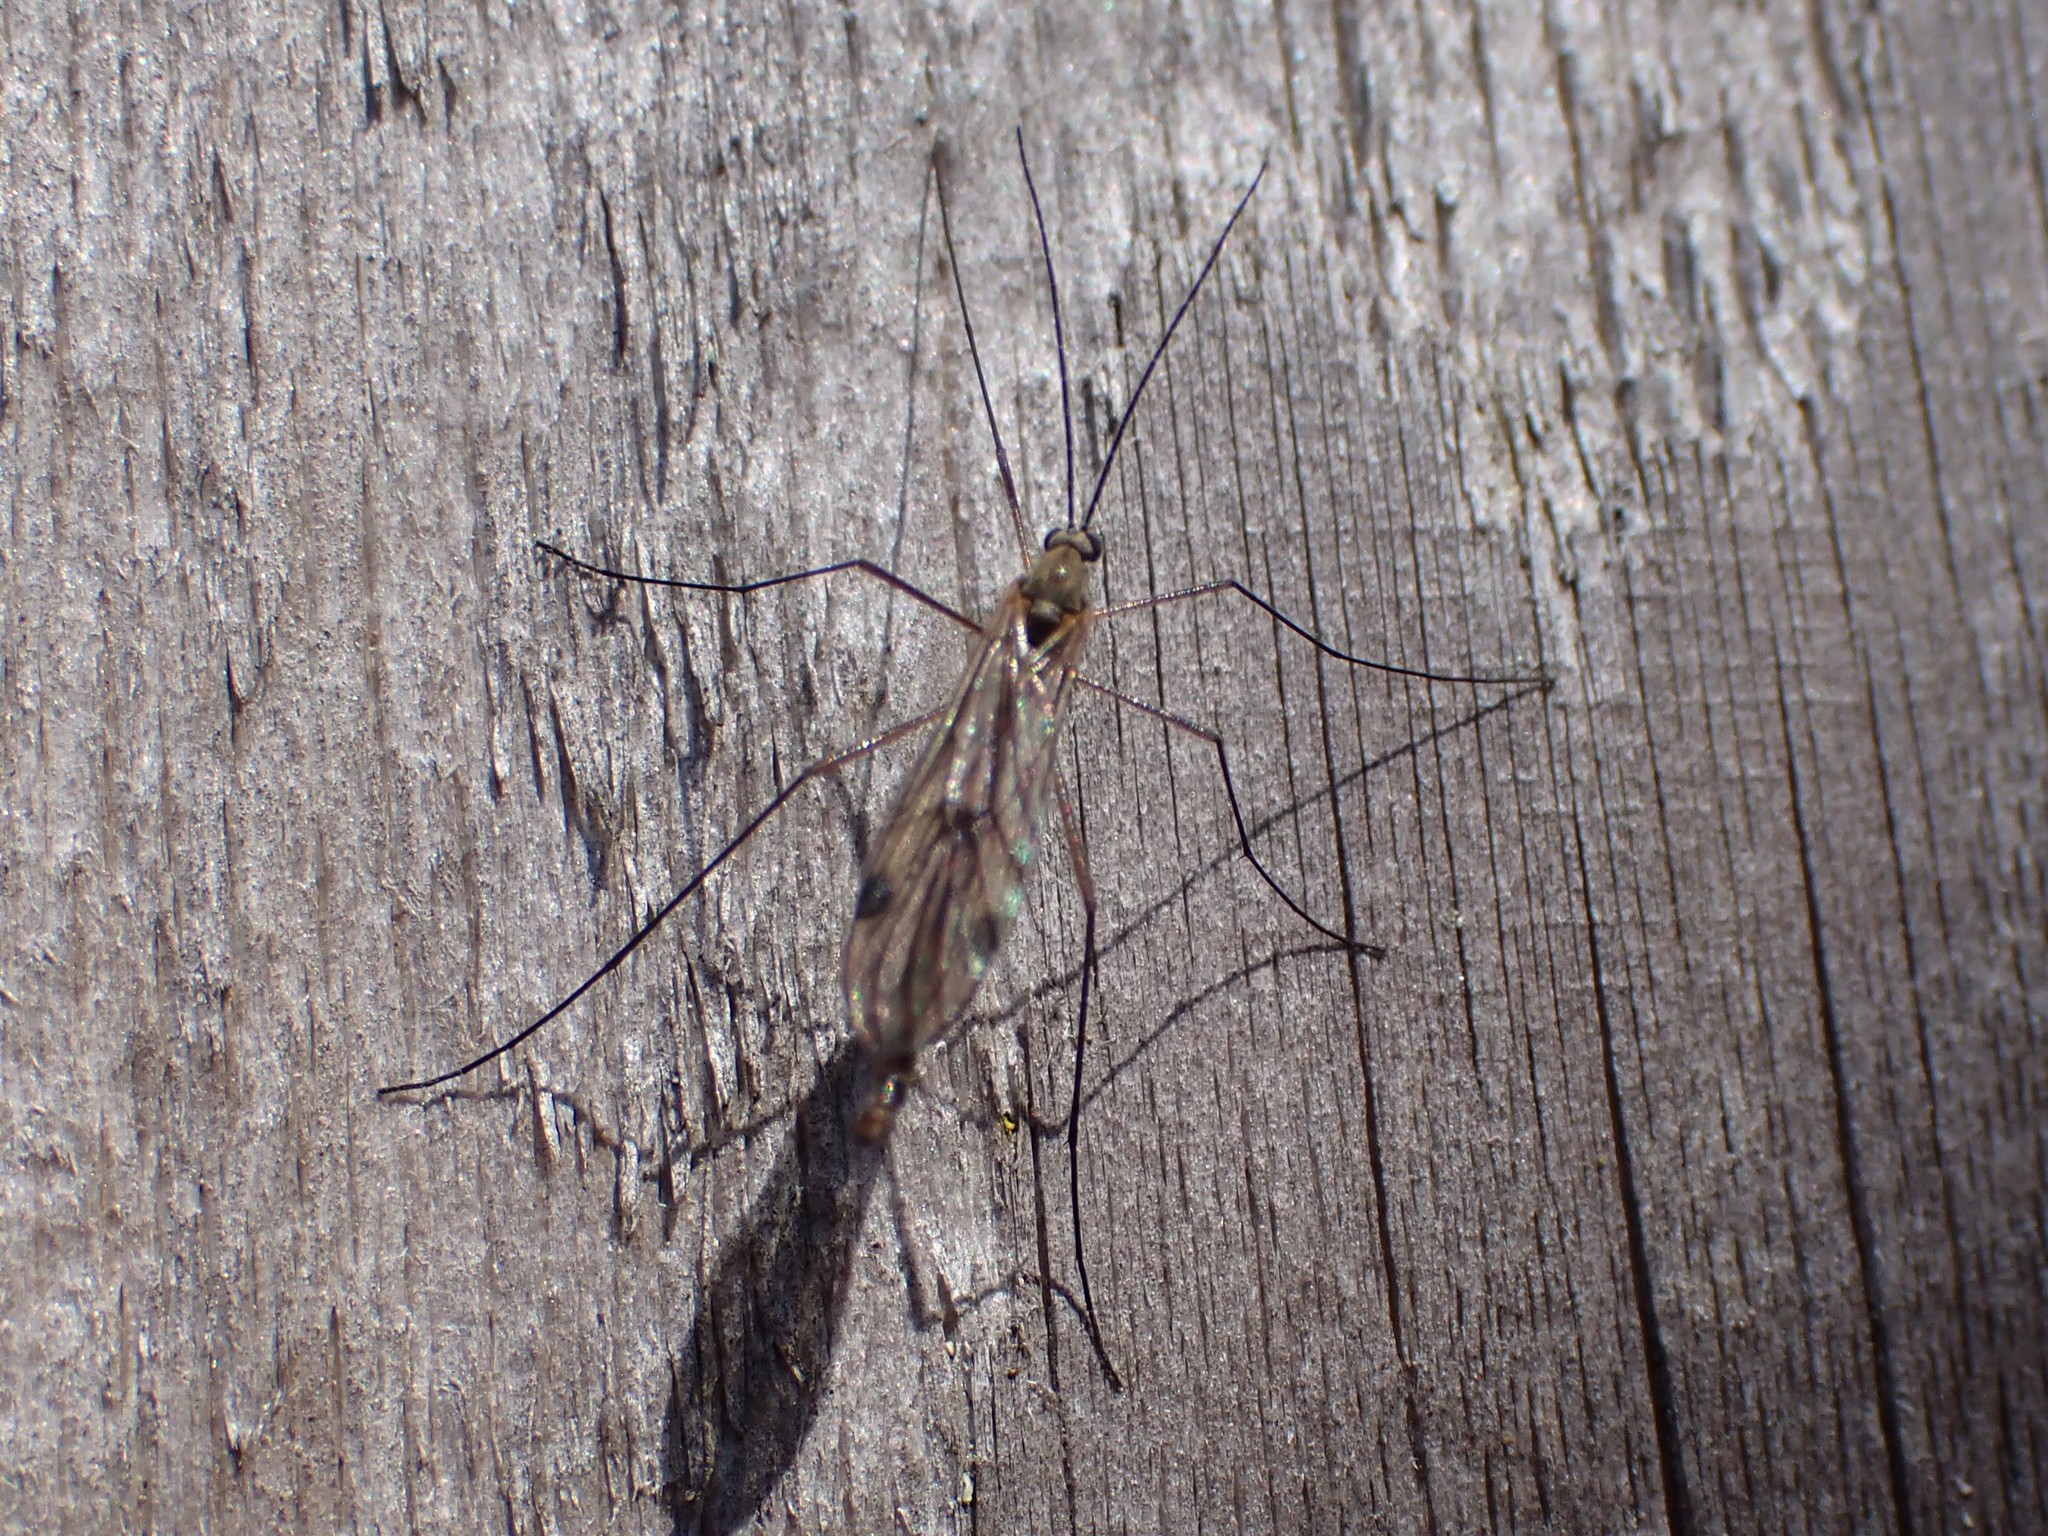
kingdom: Animalia
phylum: Arthropoda
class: Insecta
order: Diptera
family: Pachyneuridae
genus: Cramptonomyia
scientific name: Cramptonomyia spenceri
